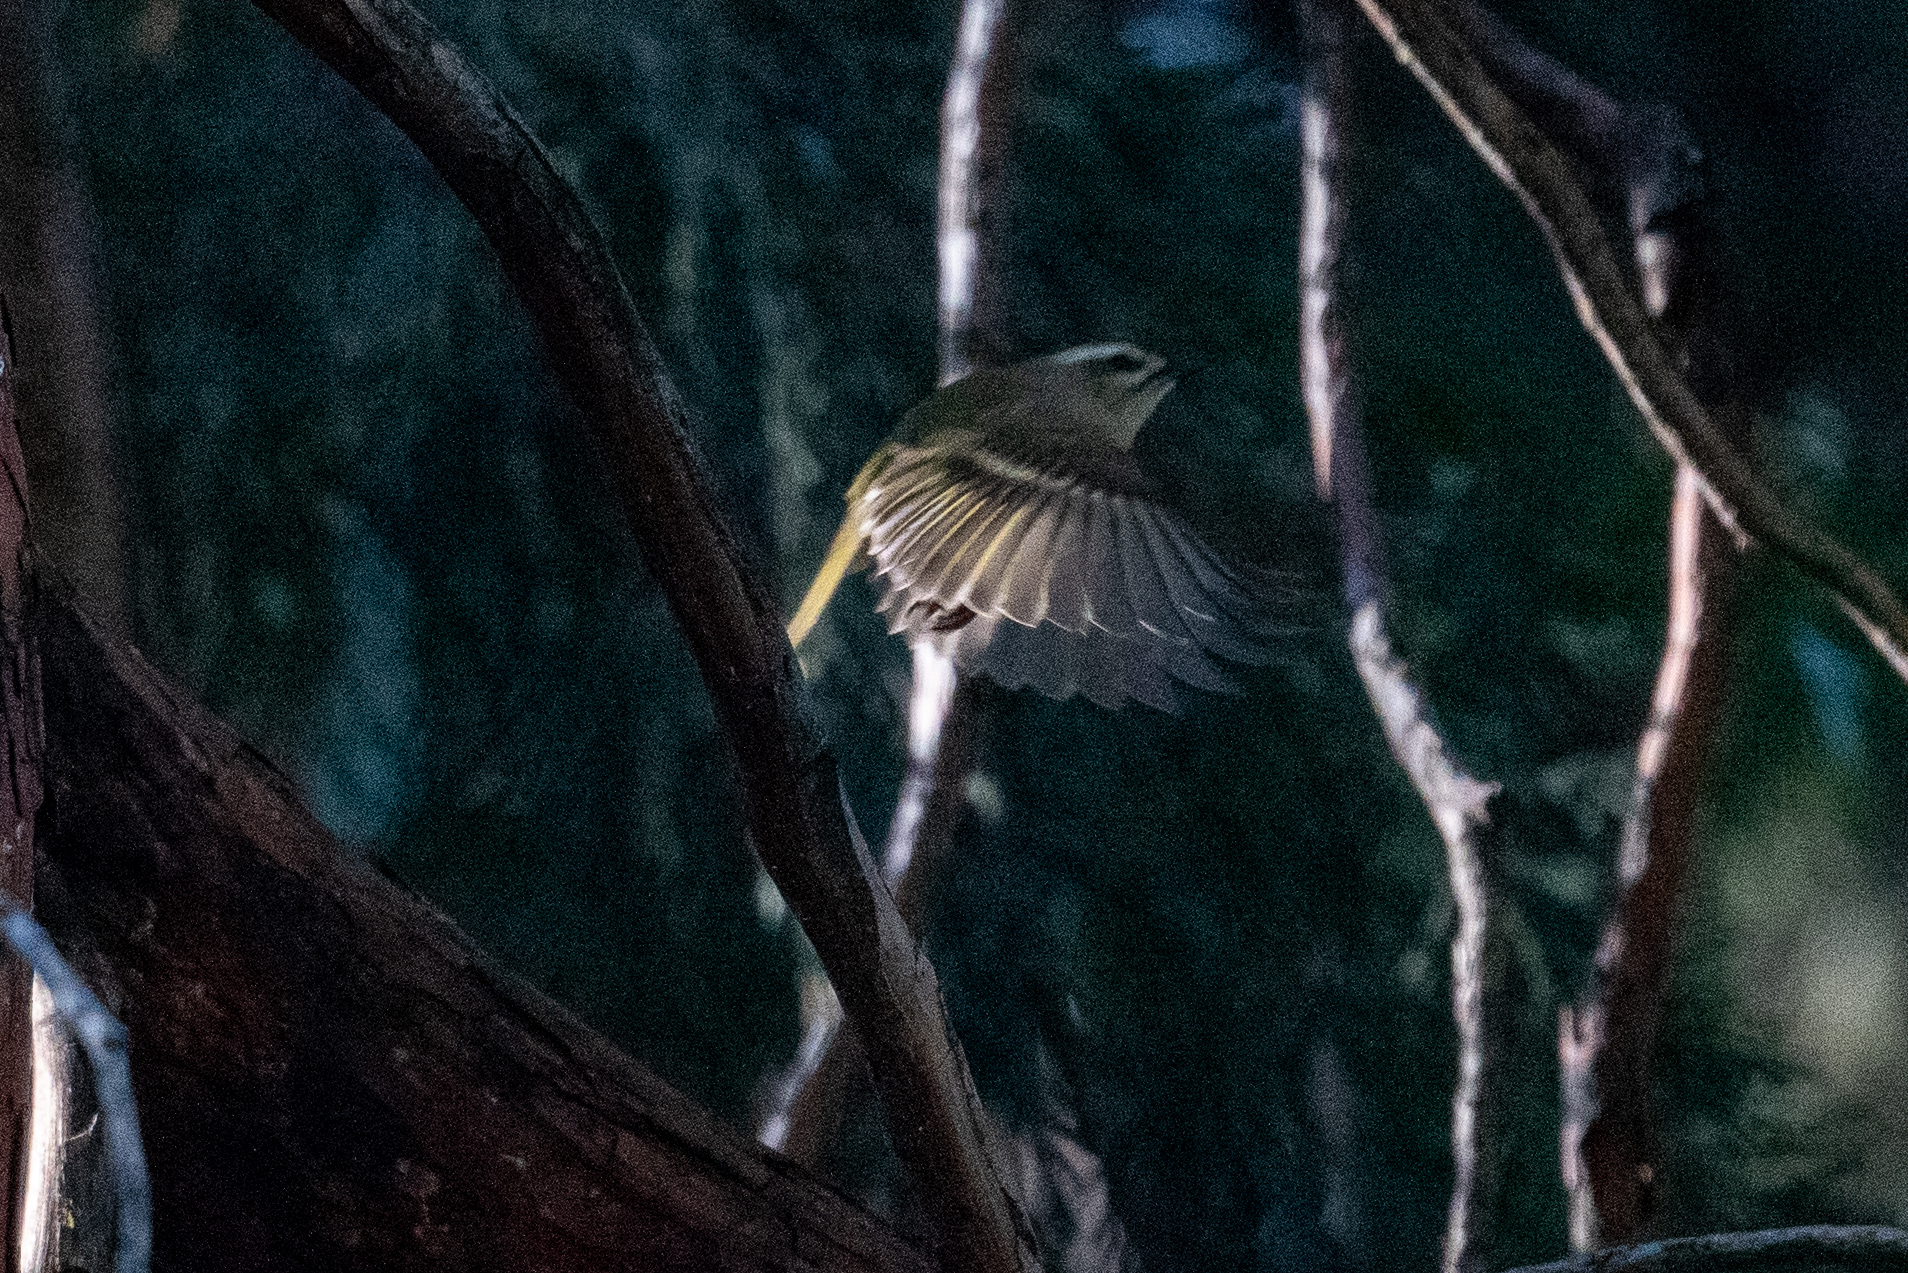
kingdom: Animalia
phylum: Chordata
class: Aves
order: Passeriformes
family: Regulidae
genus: Regulus
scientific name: Regulus satrapa
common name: Golden-crowned kinglet
